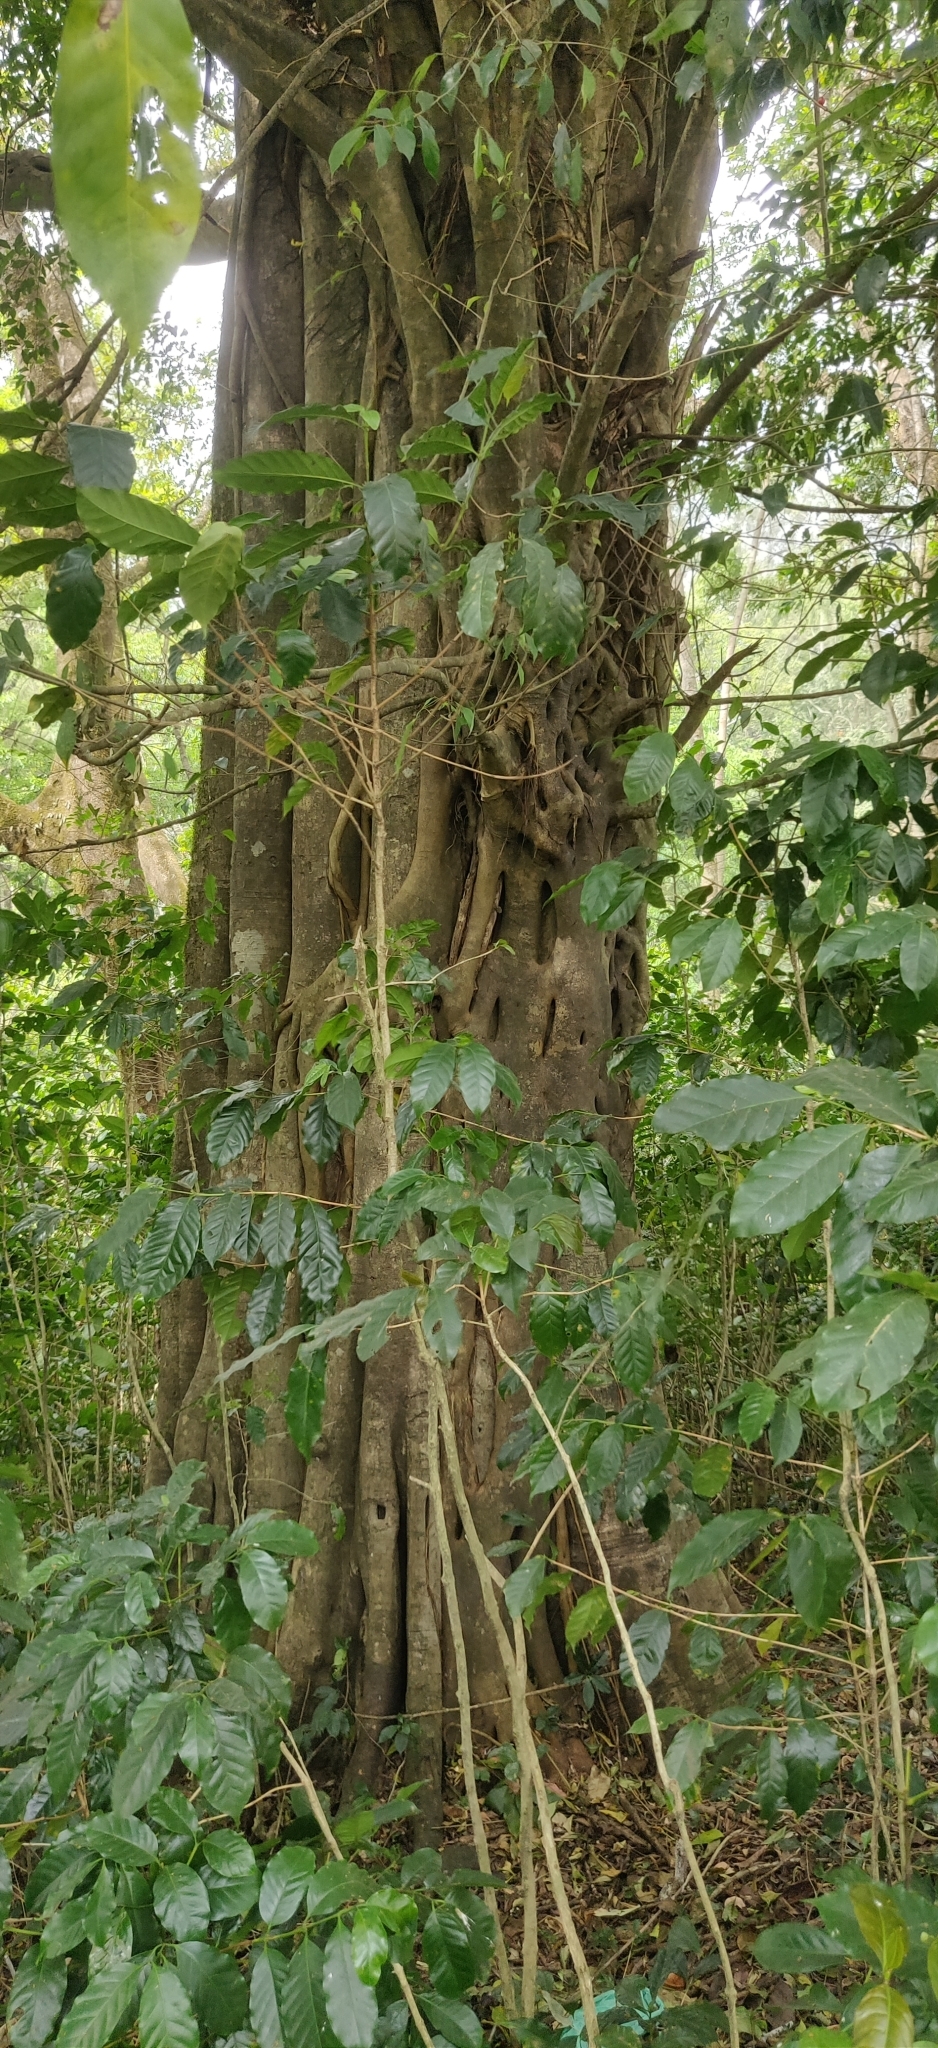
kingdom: Plantae
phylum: Tracheophyta
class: Magnoliopsida
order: Rosales
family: Moraceae
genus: Ficus
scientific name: Ficus tinctoria
